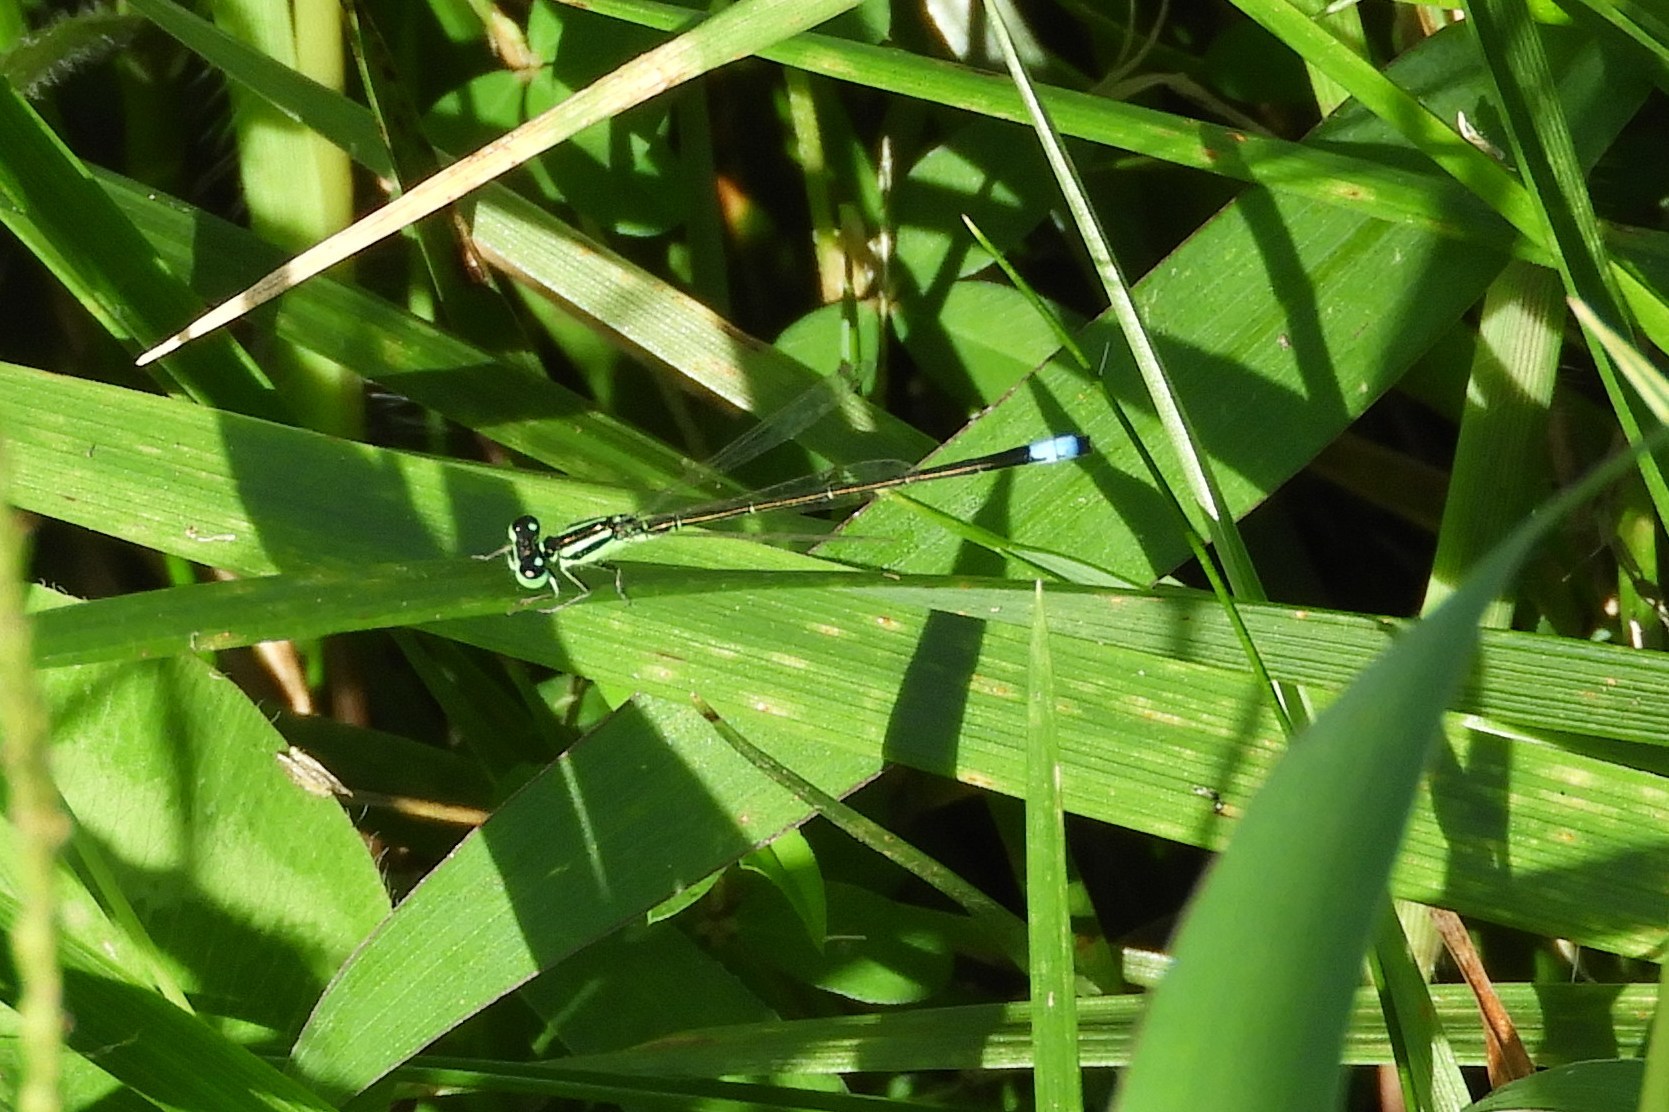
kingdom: Animalia
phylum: Arthropoda
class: Insecta
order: Odonata
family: Coenagrionidae
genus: Ischnura
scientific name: Ischnura verticalis
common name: Eastern forktail
